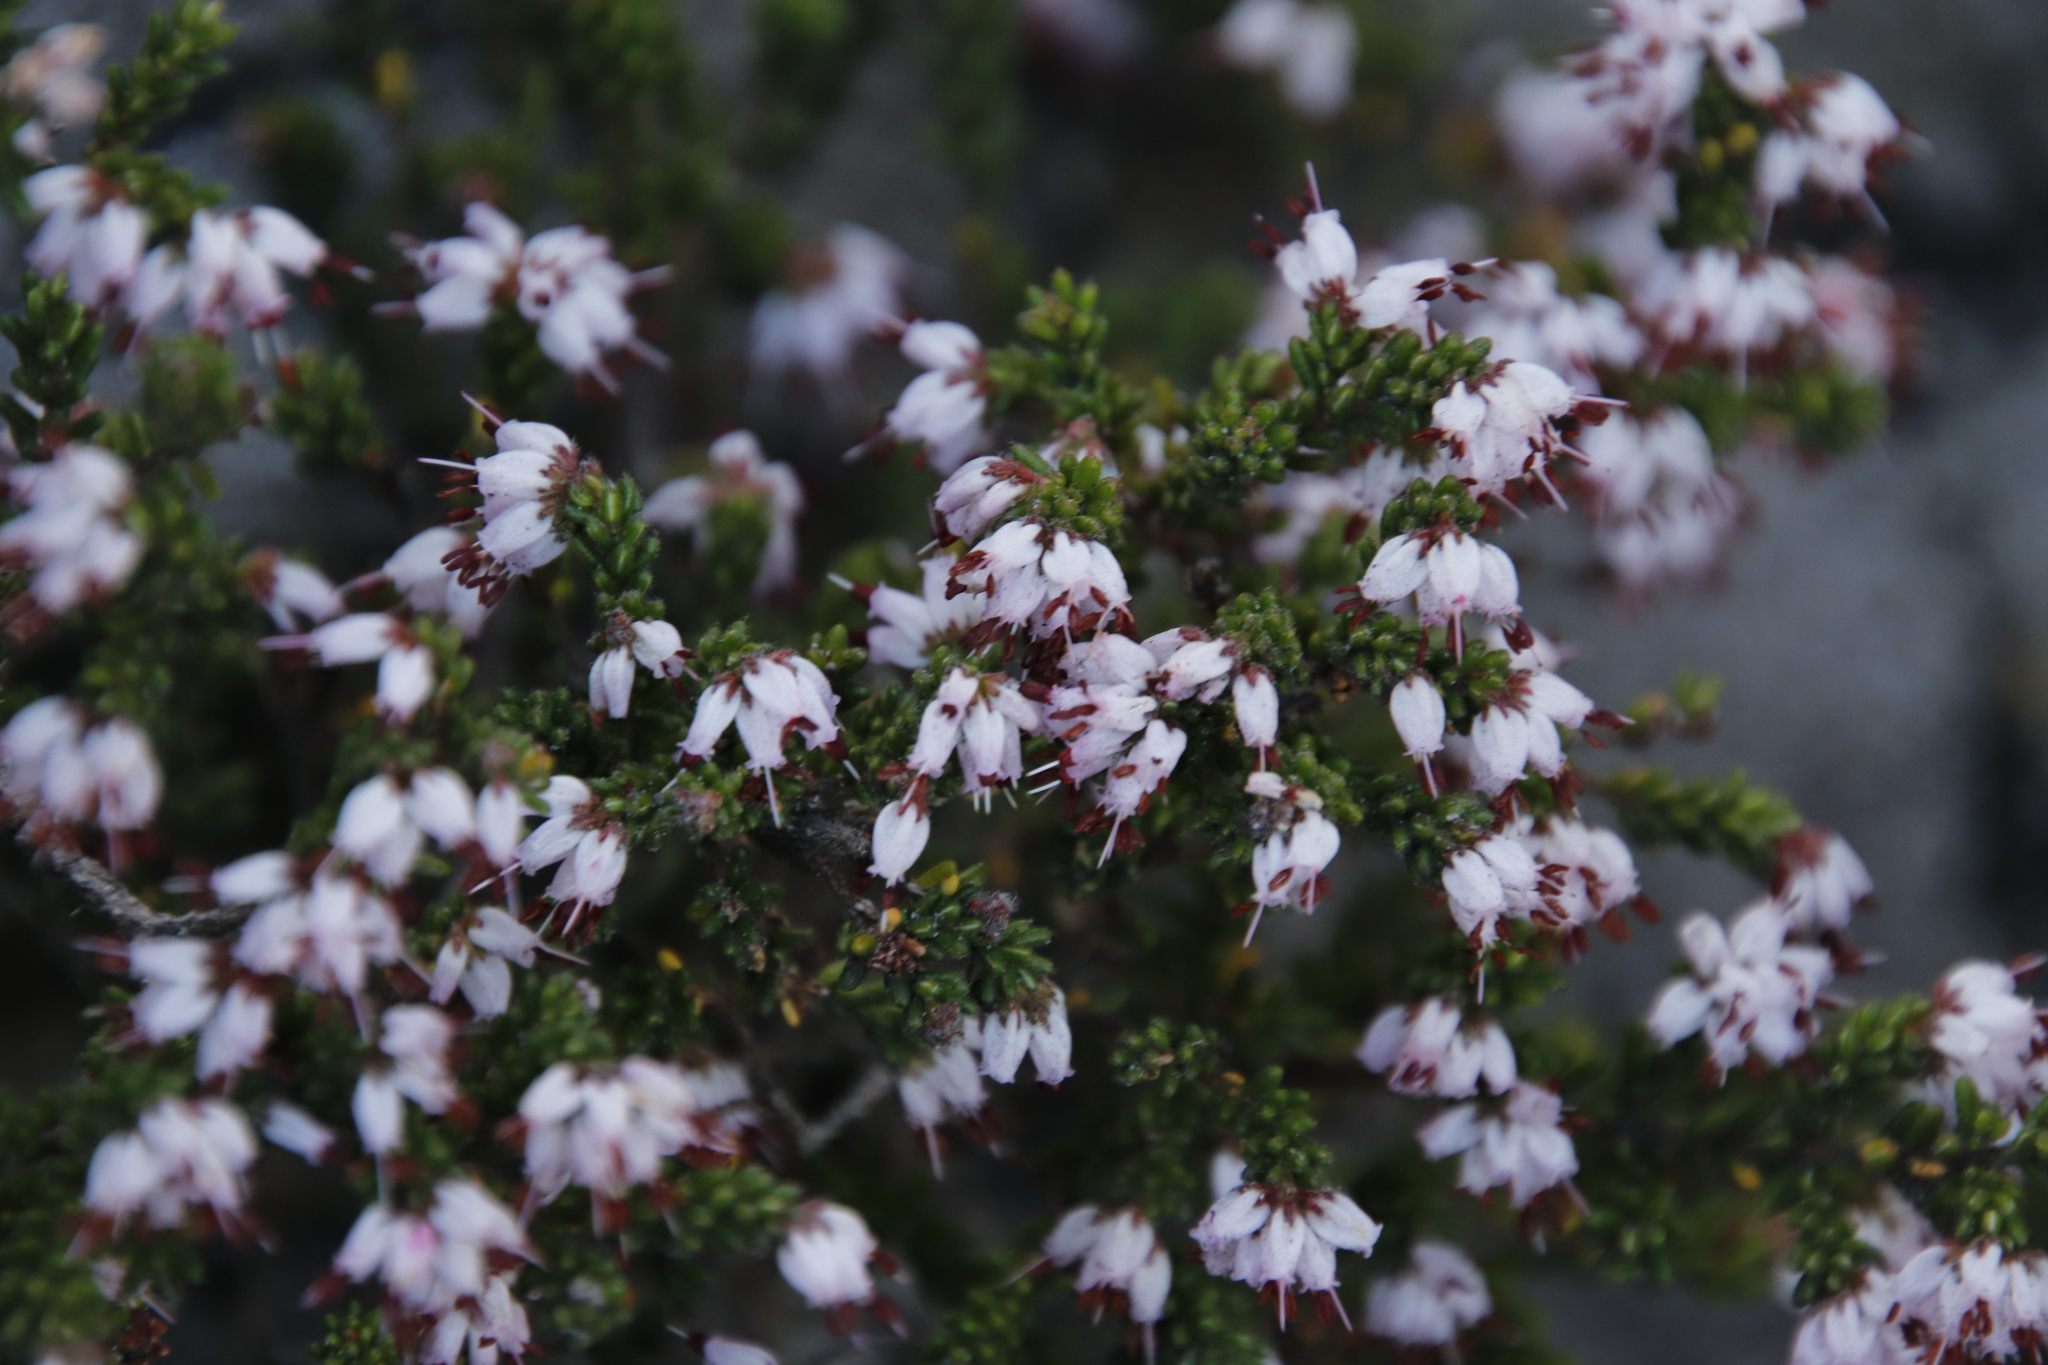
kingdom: Plantae
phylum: Tracheophyta
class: Magnoliopsida
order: Ericales
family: Ericaceae
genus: Erica
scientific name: Erica ericoides
